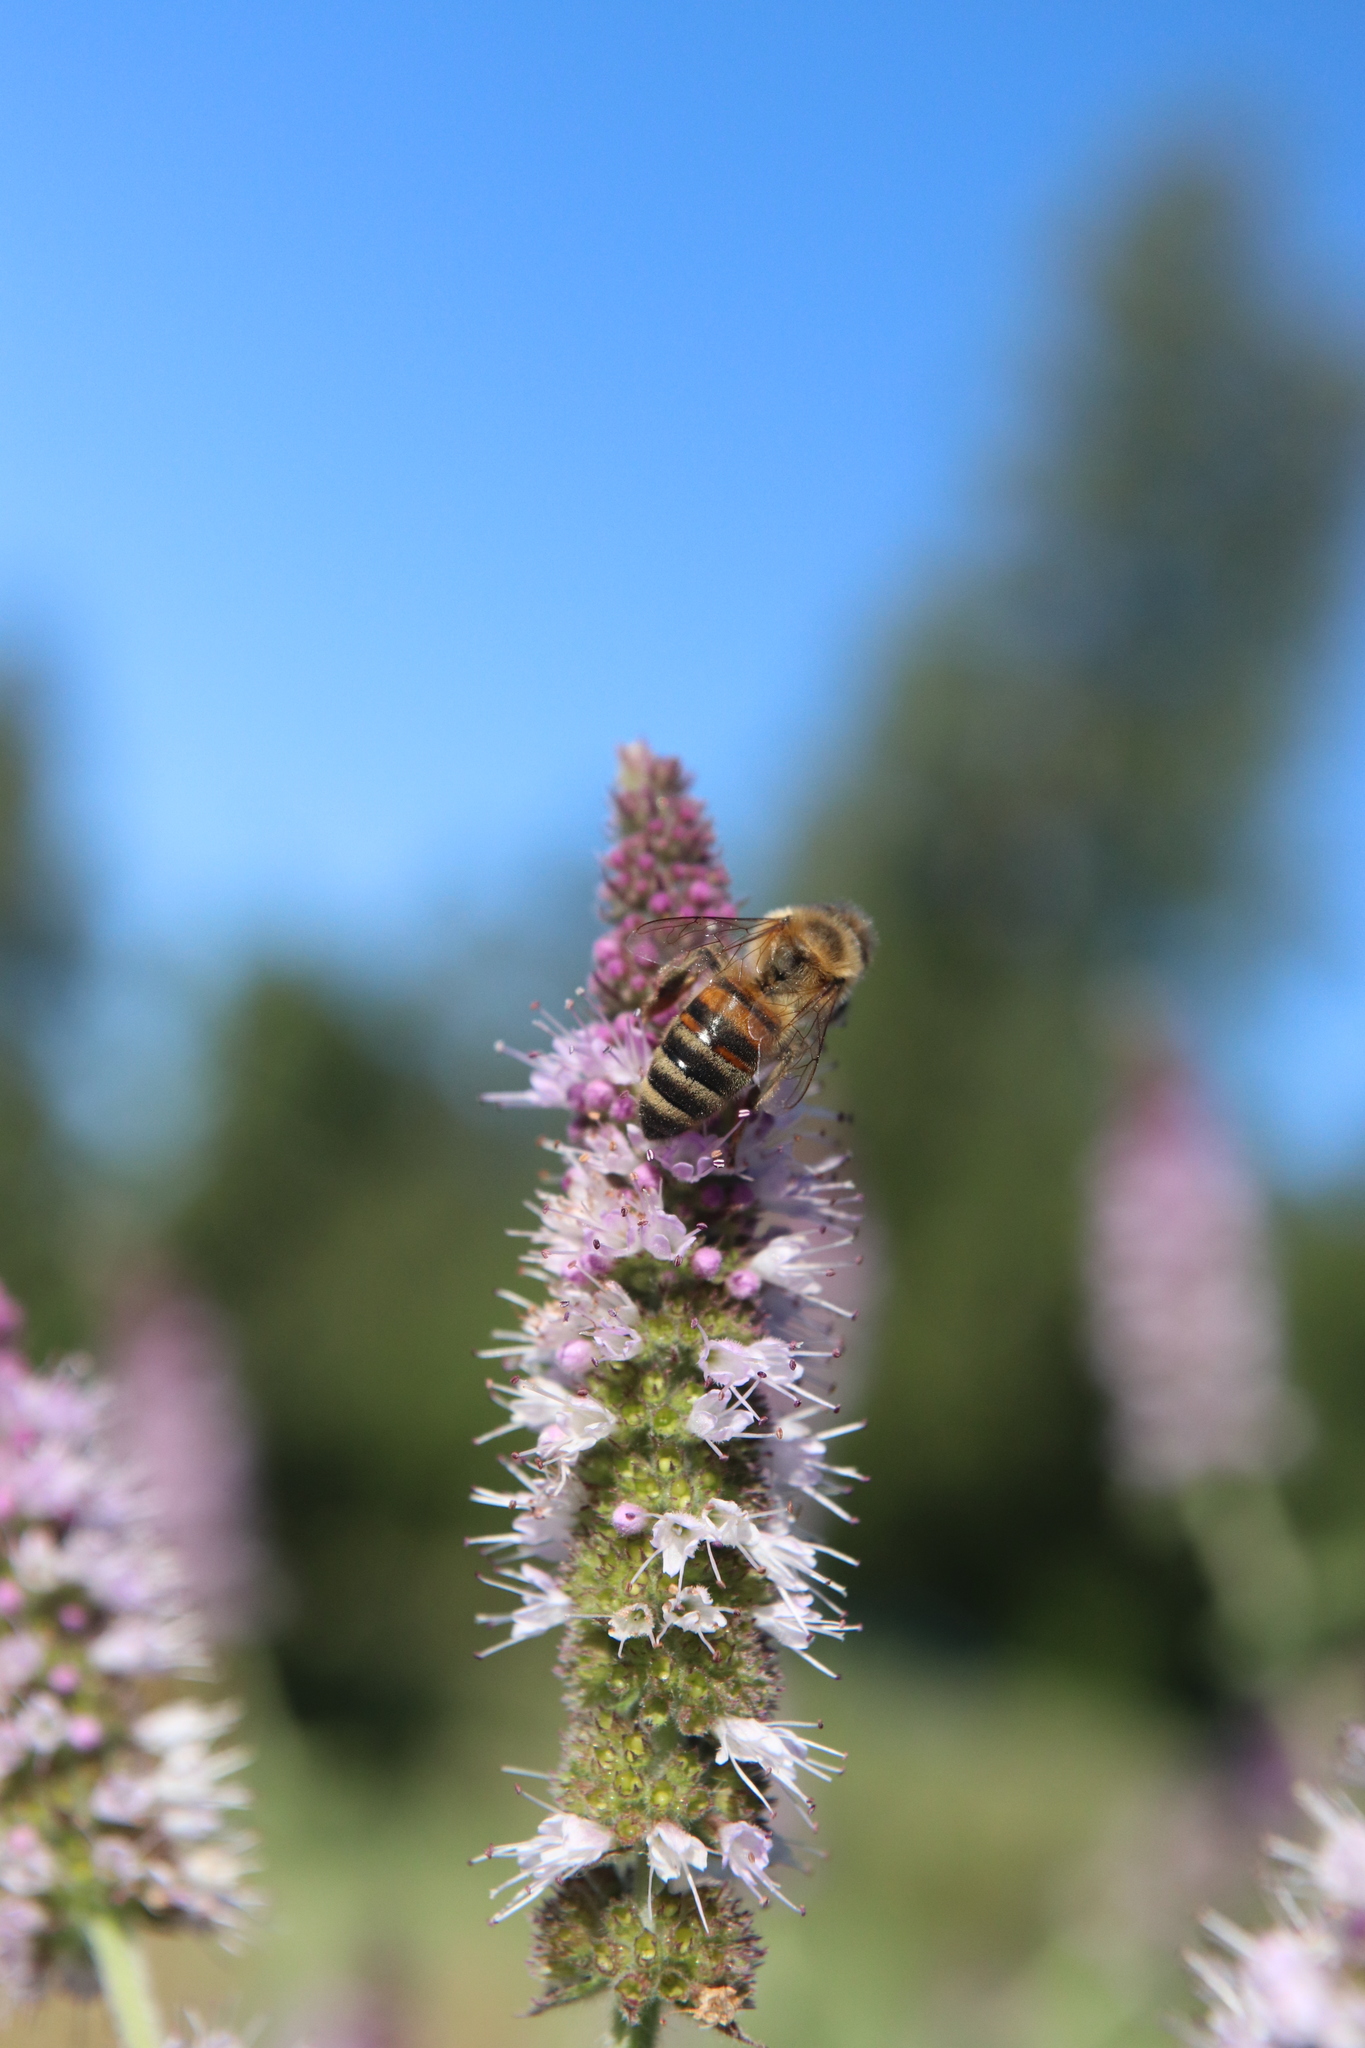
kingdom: Animalia
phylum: Arthropoda
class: Insecta
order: Hymenoptera
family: Apidae
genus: Apis
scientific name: Apis mellifera
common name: Honey bee
